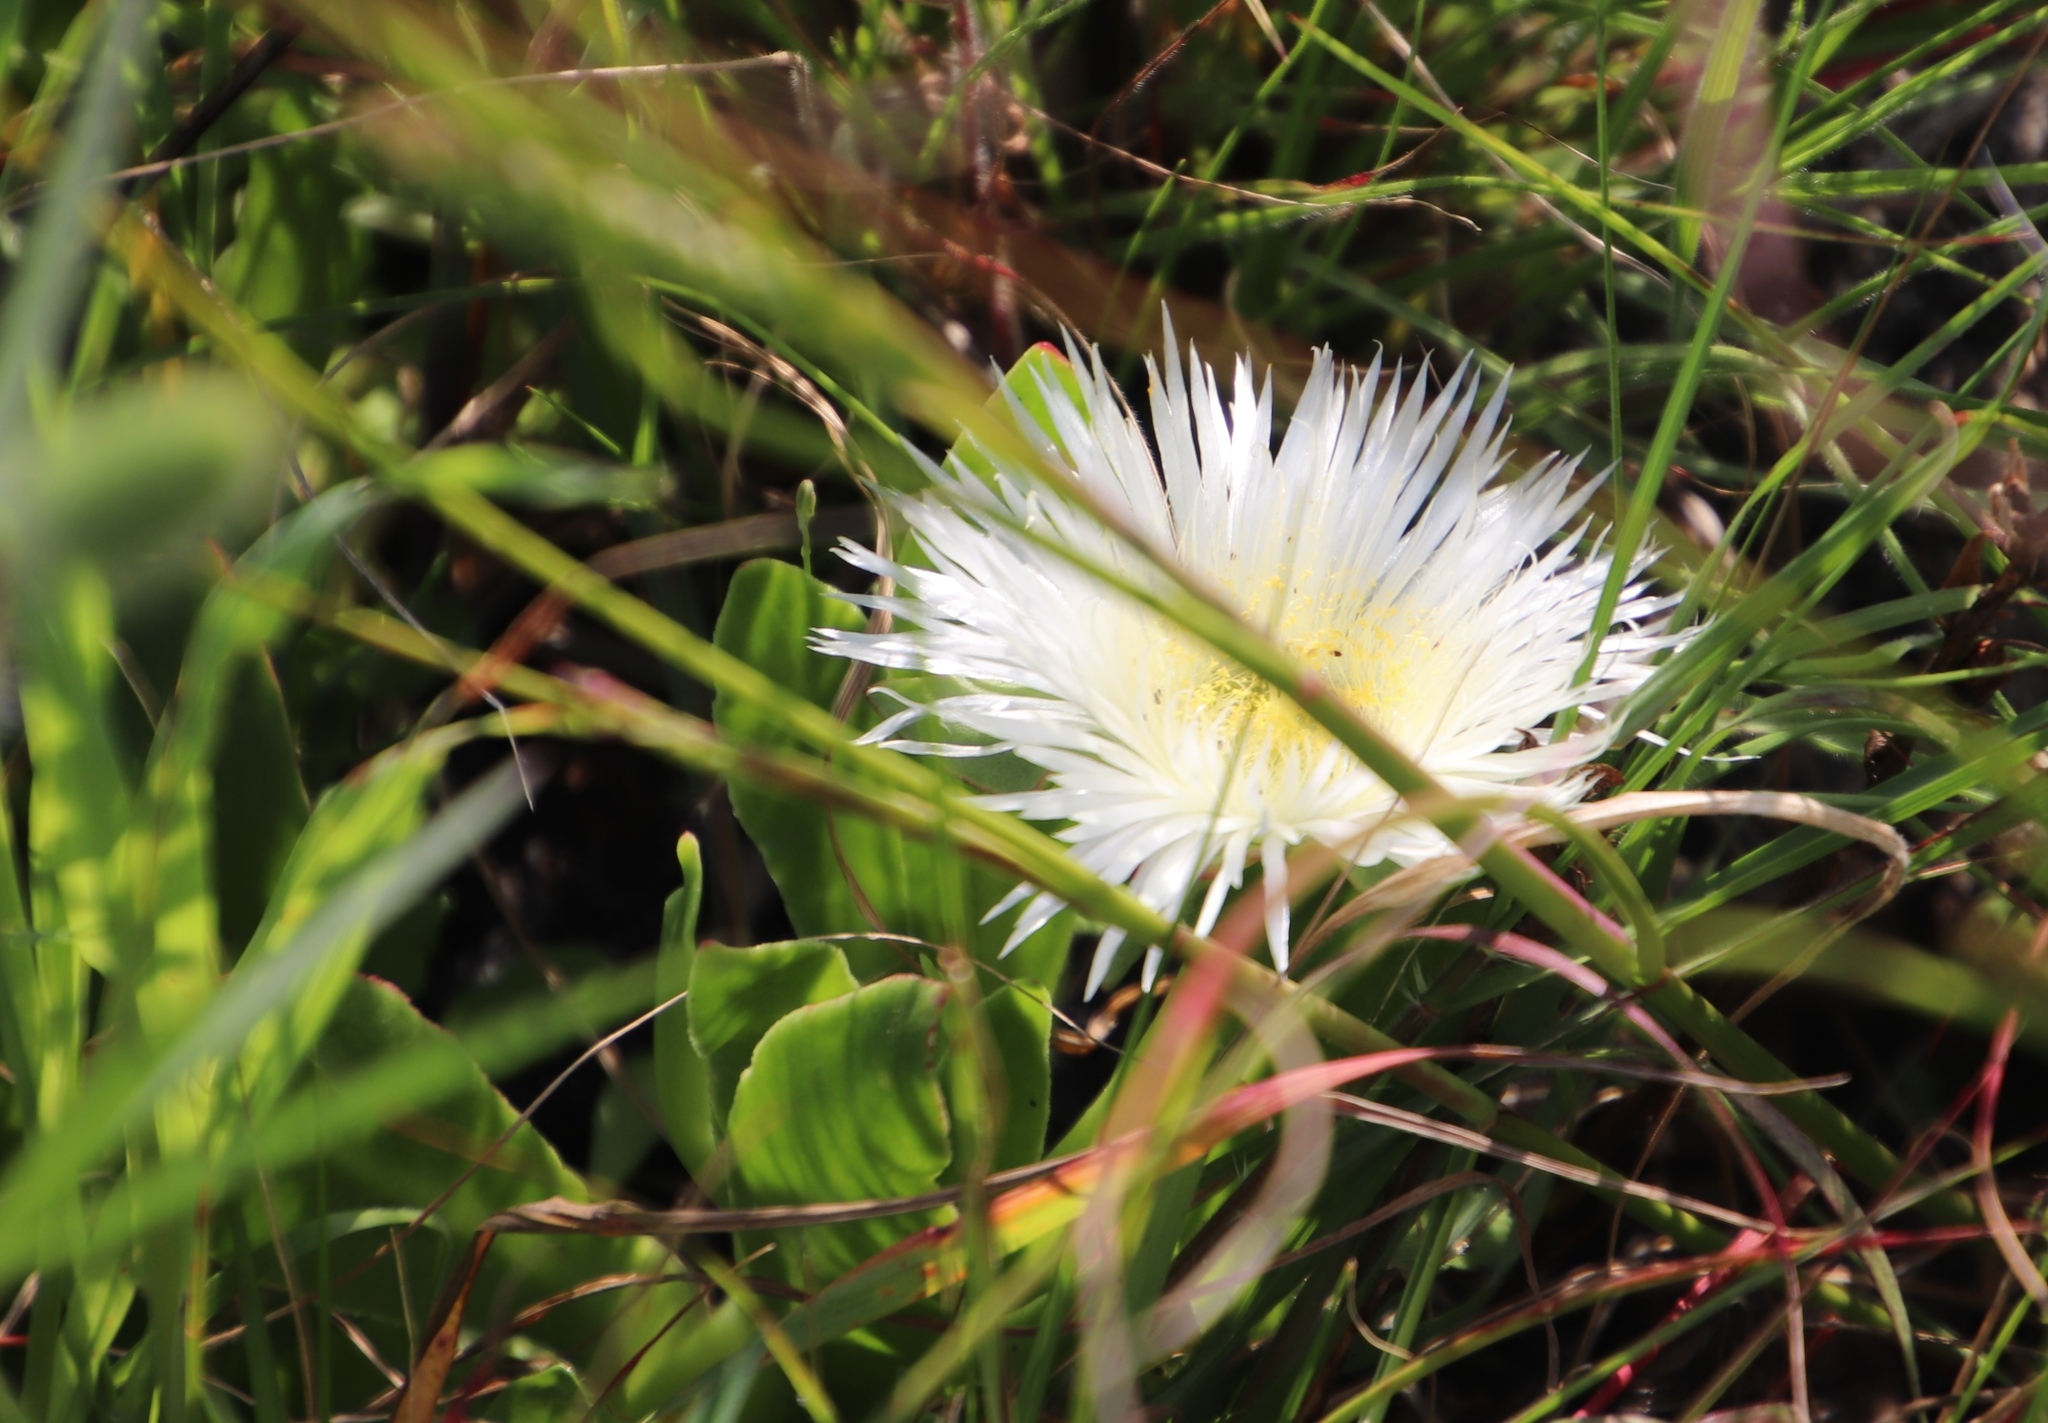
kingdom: Plantae
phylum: Tracheophyta
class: Magnoliopsida
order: Caryophyllales
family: Aizoaceae
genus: Skiatophytum
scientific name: Skiatophytum tripolium
